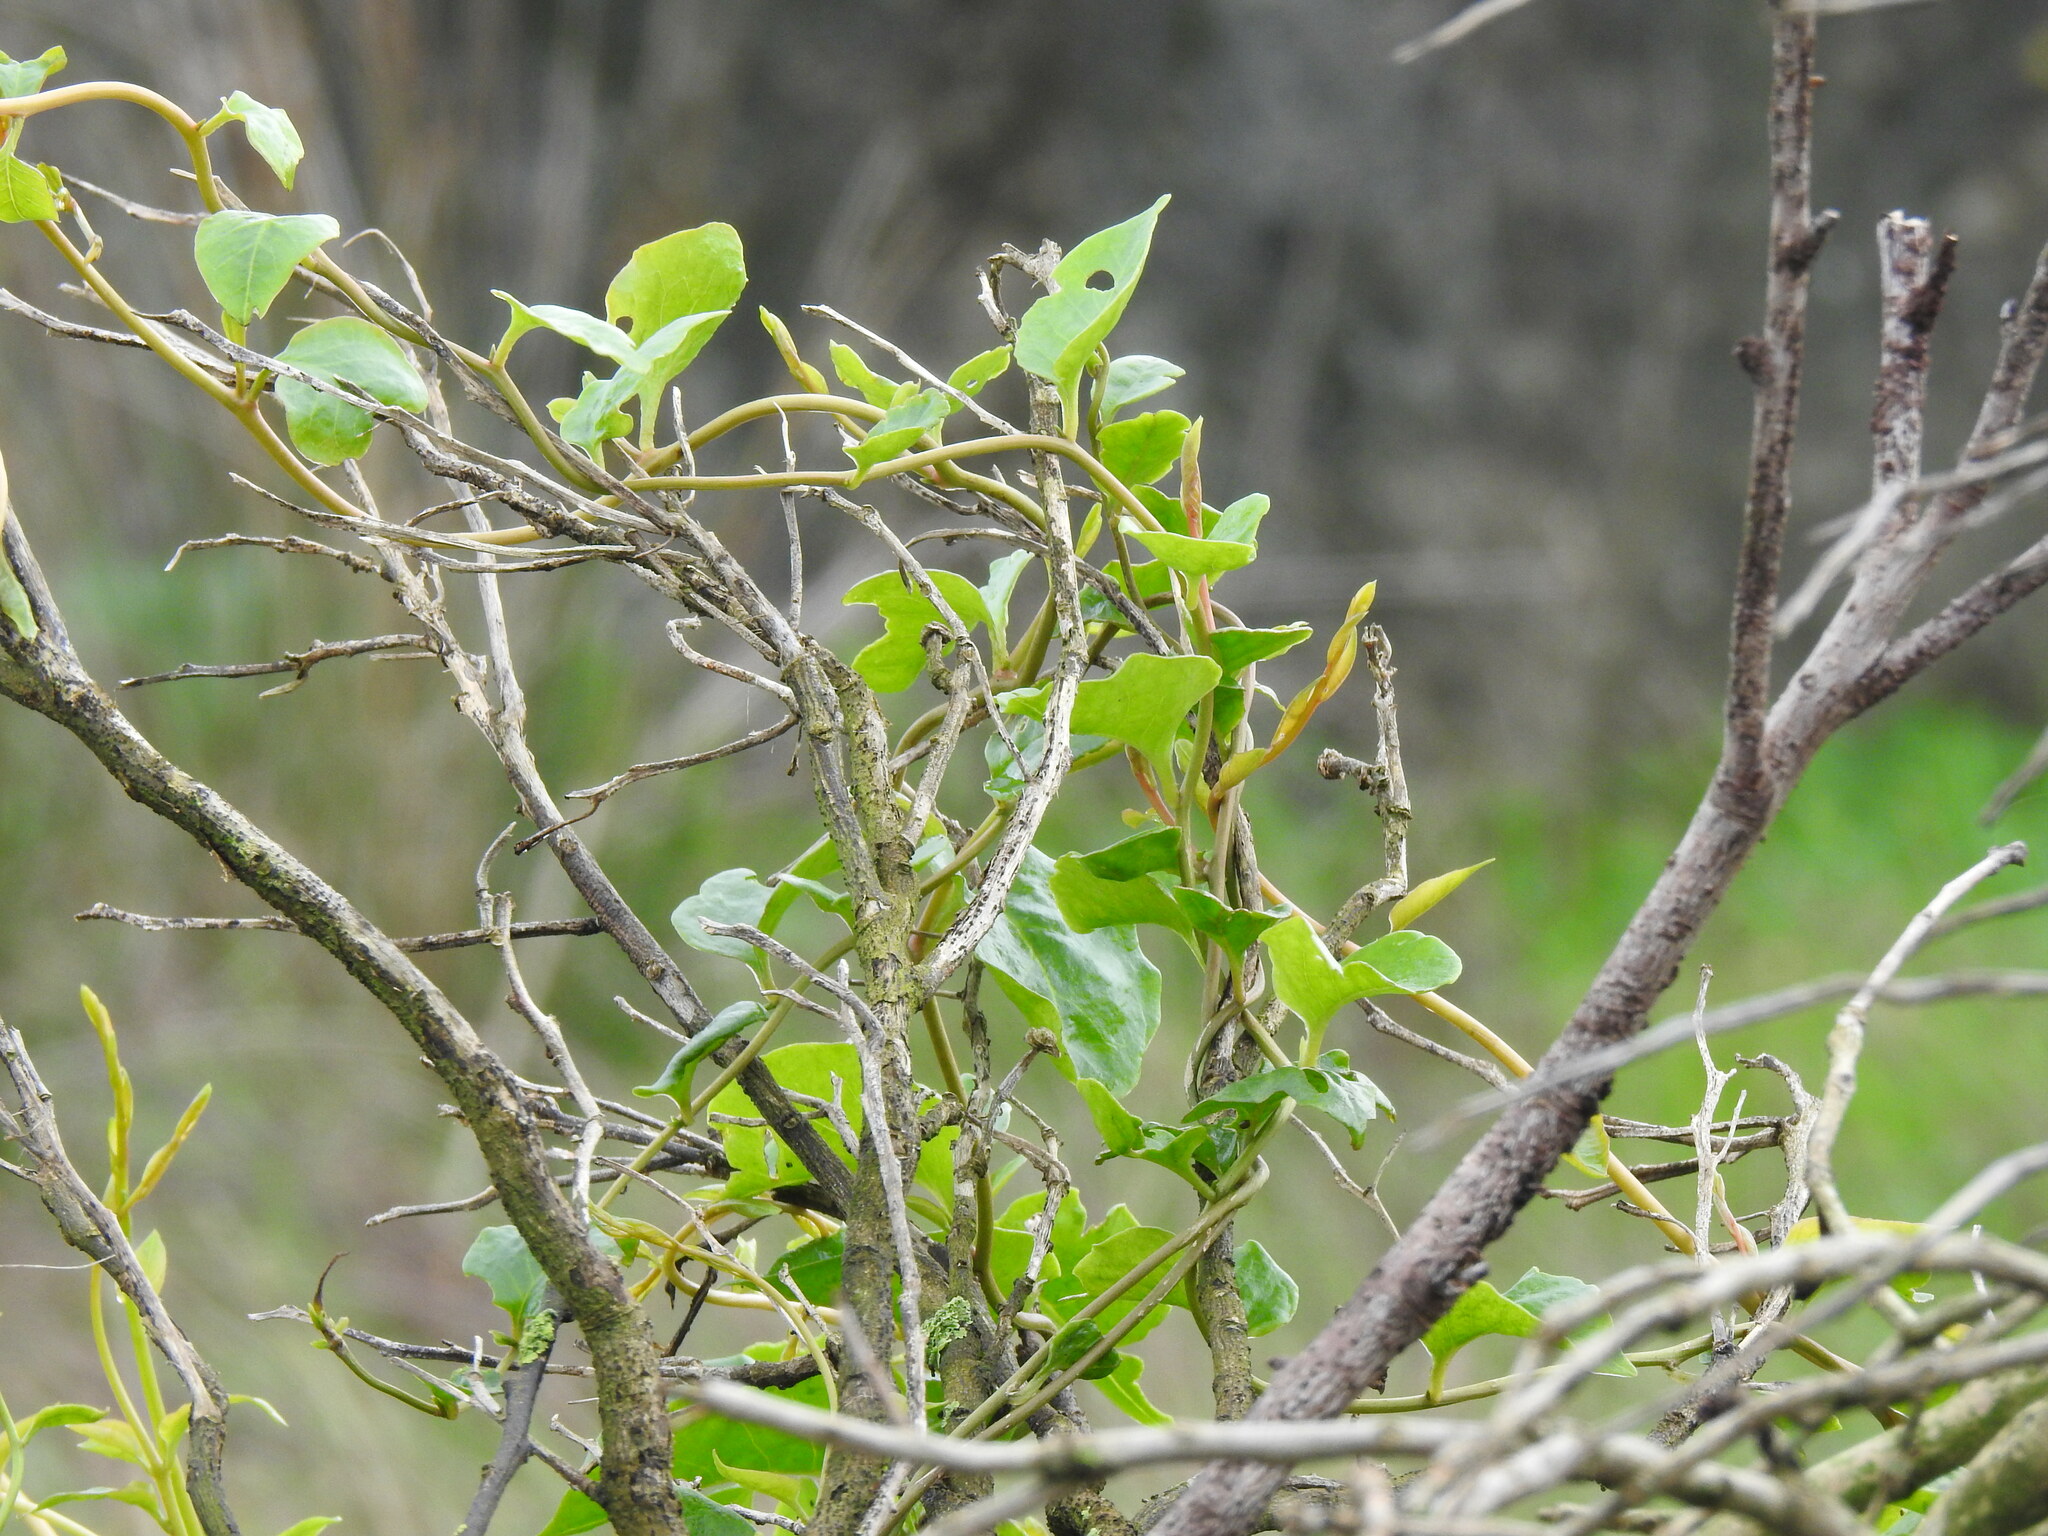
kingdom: Plantae
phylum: Tracheophyta
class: Magnoliopsida
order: Caryophyllales
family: Basellaceae
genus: Anredera
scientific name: Anredera cordifolia
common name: Heartleaf madeiravine
